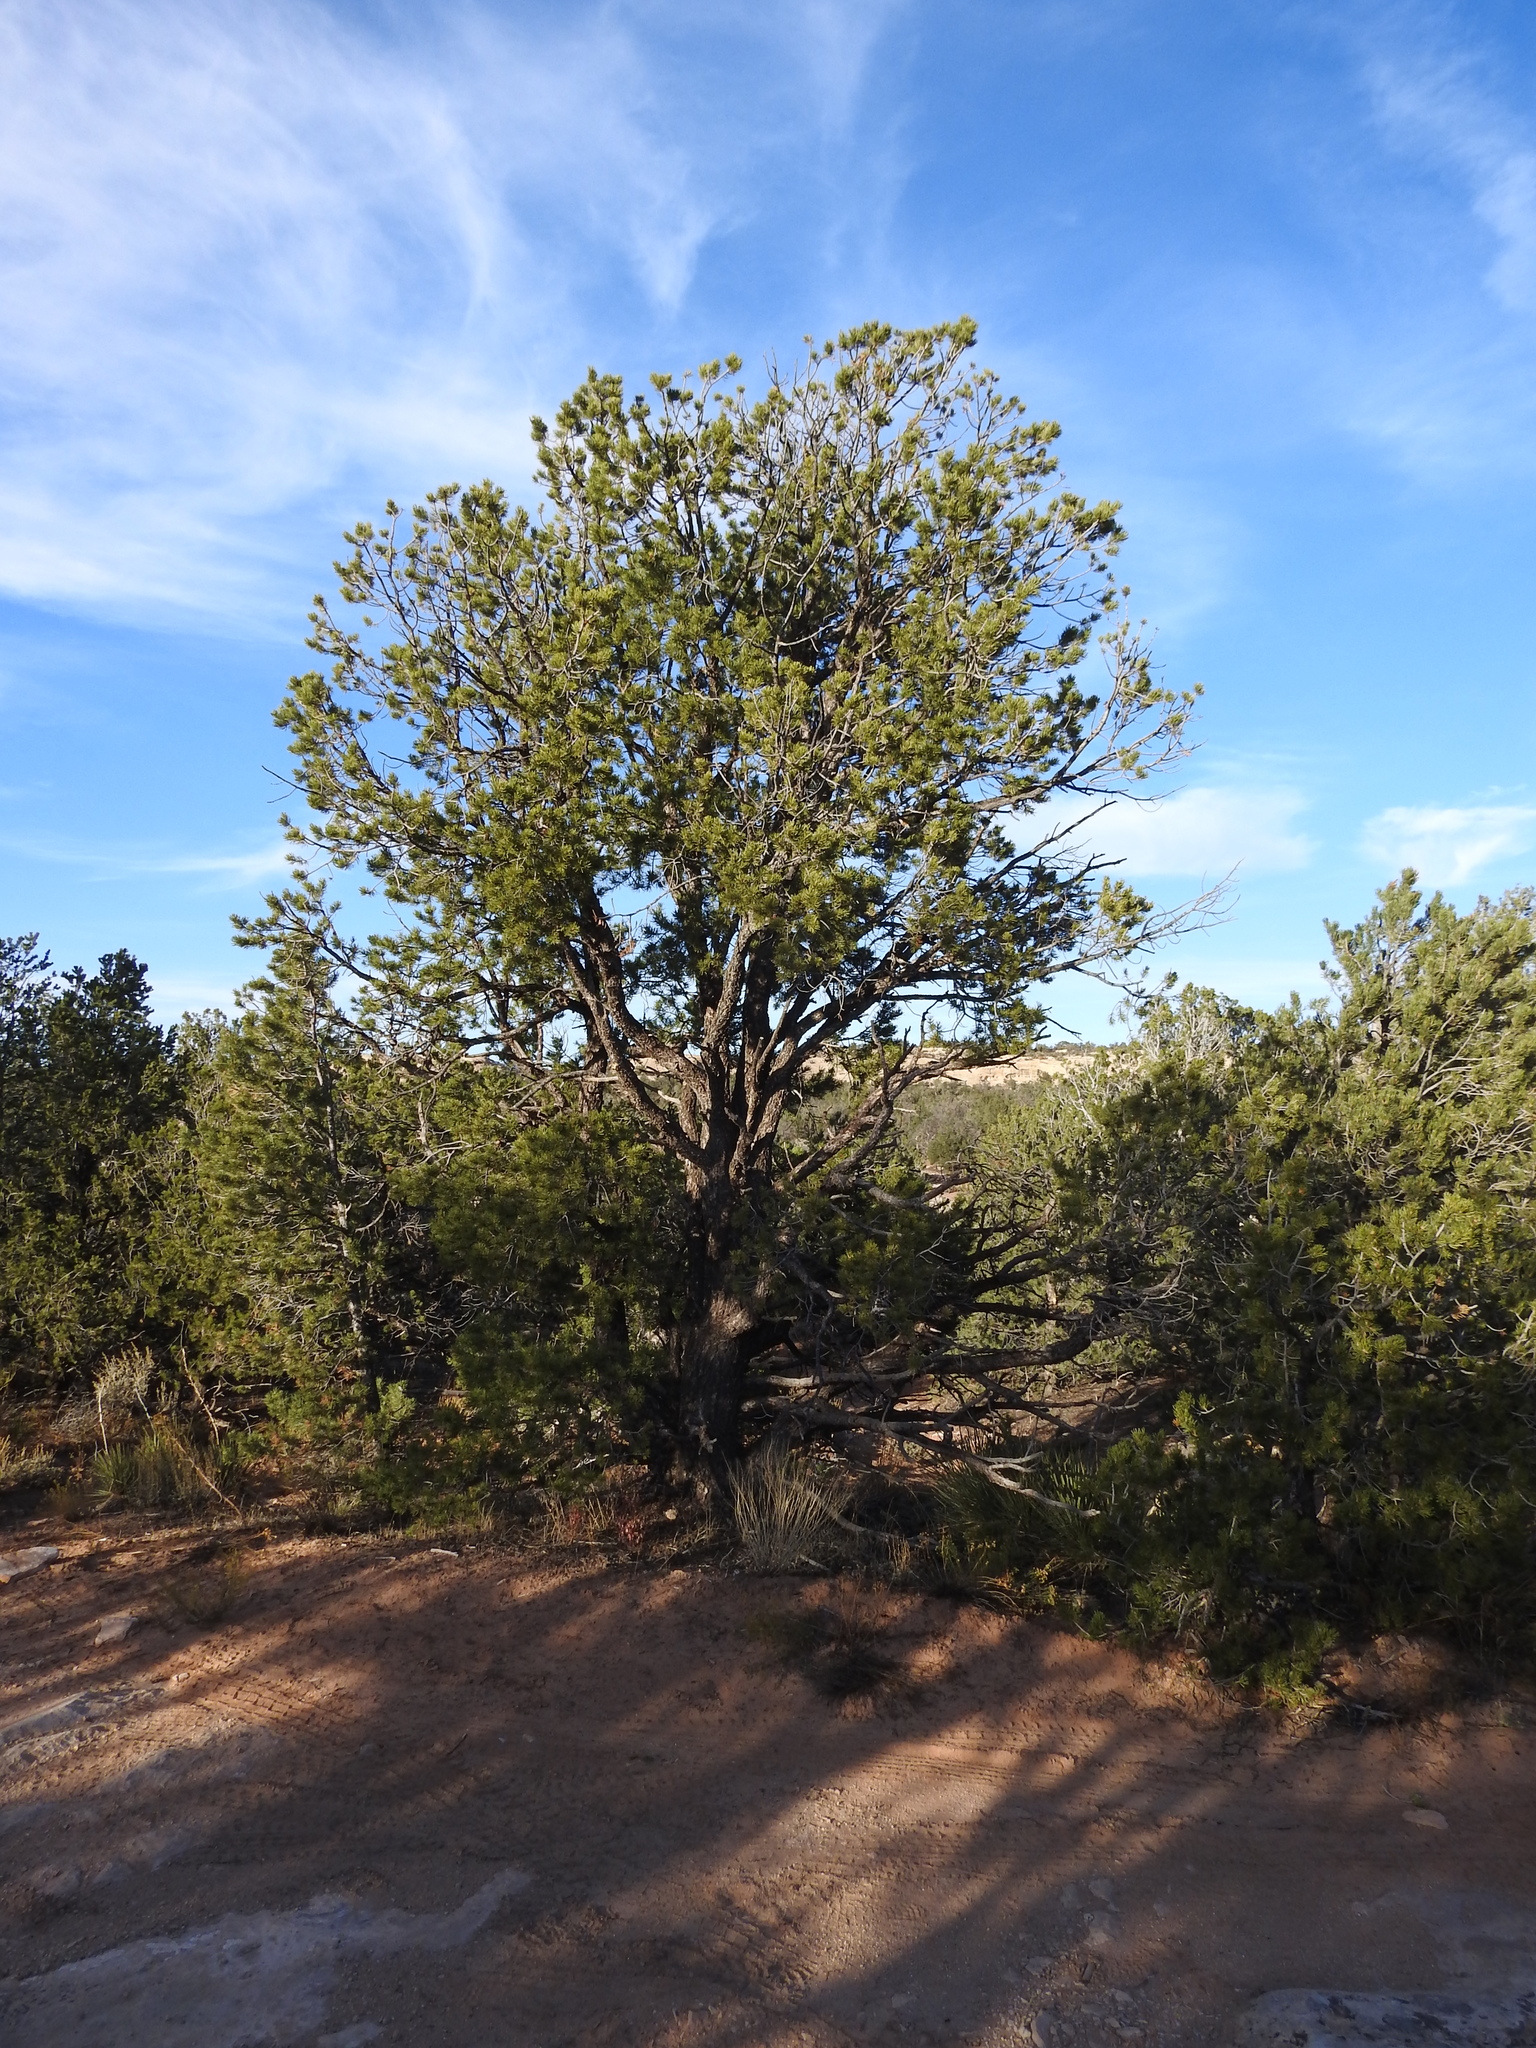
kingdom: Plantae
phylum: Tracheophyta
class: Pinopsida
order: Pinales
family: Pinaceae
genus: Pinus
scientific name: Pinus edulis
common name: Colorado pinyon
